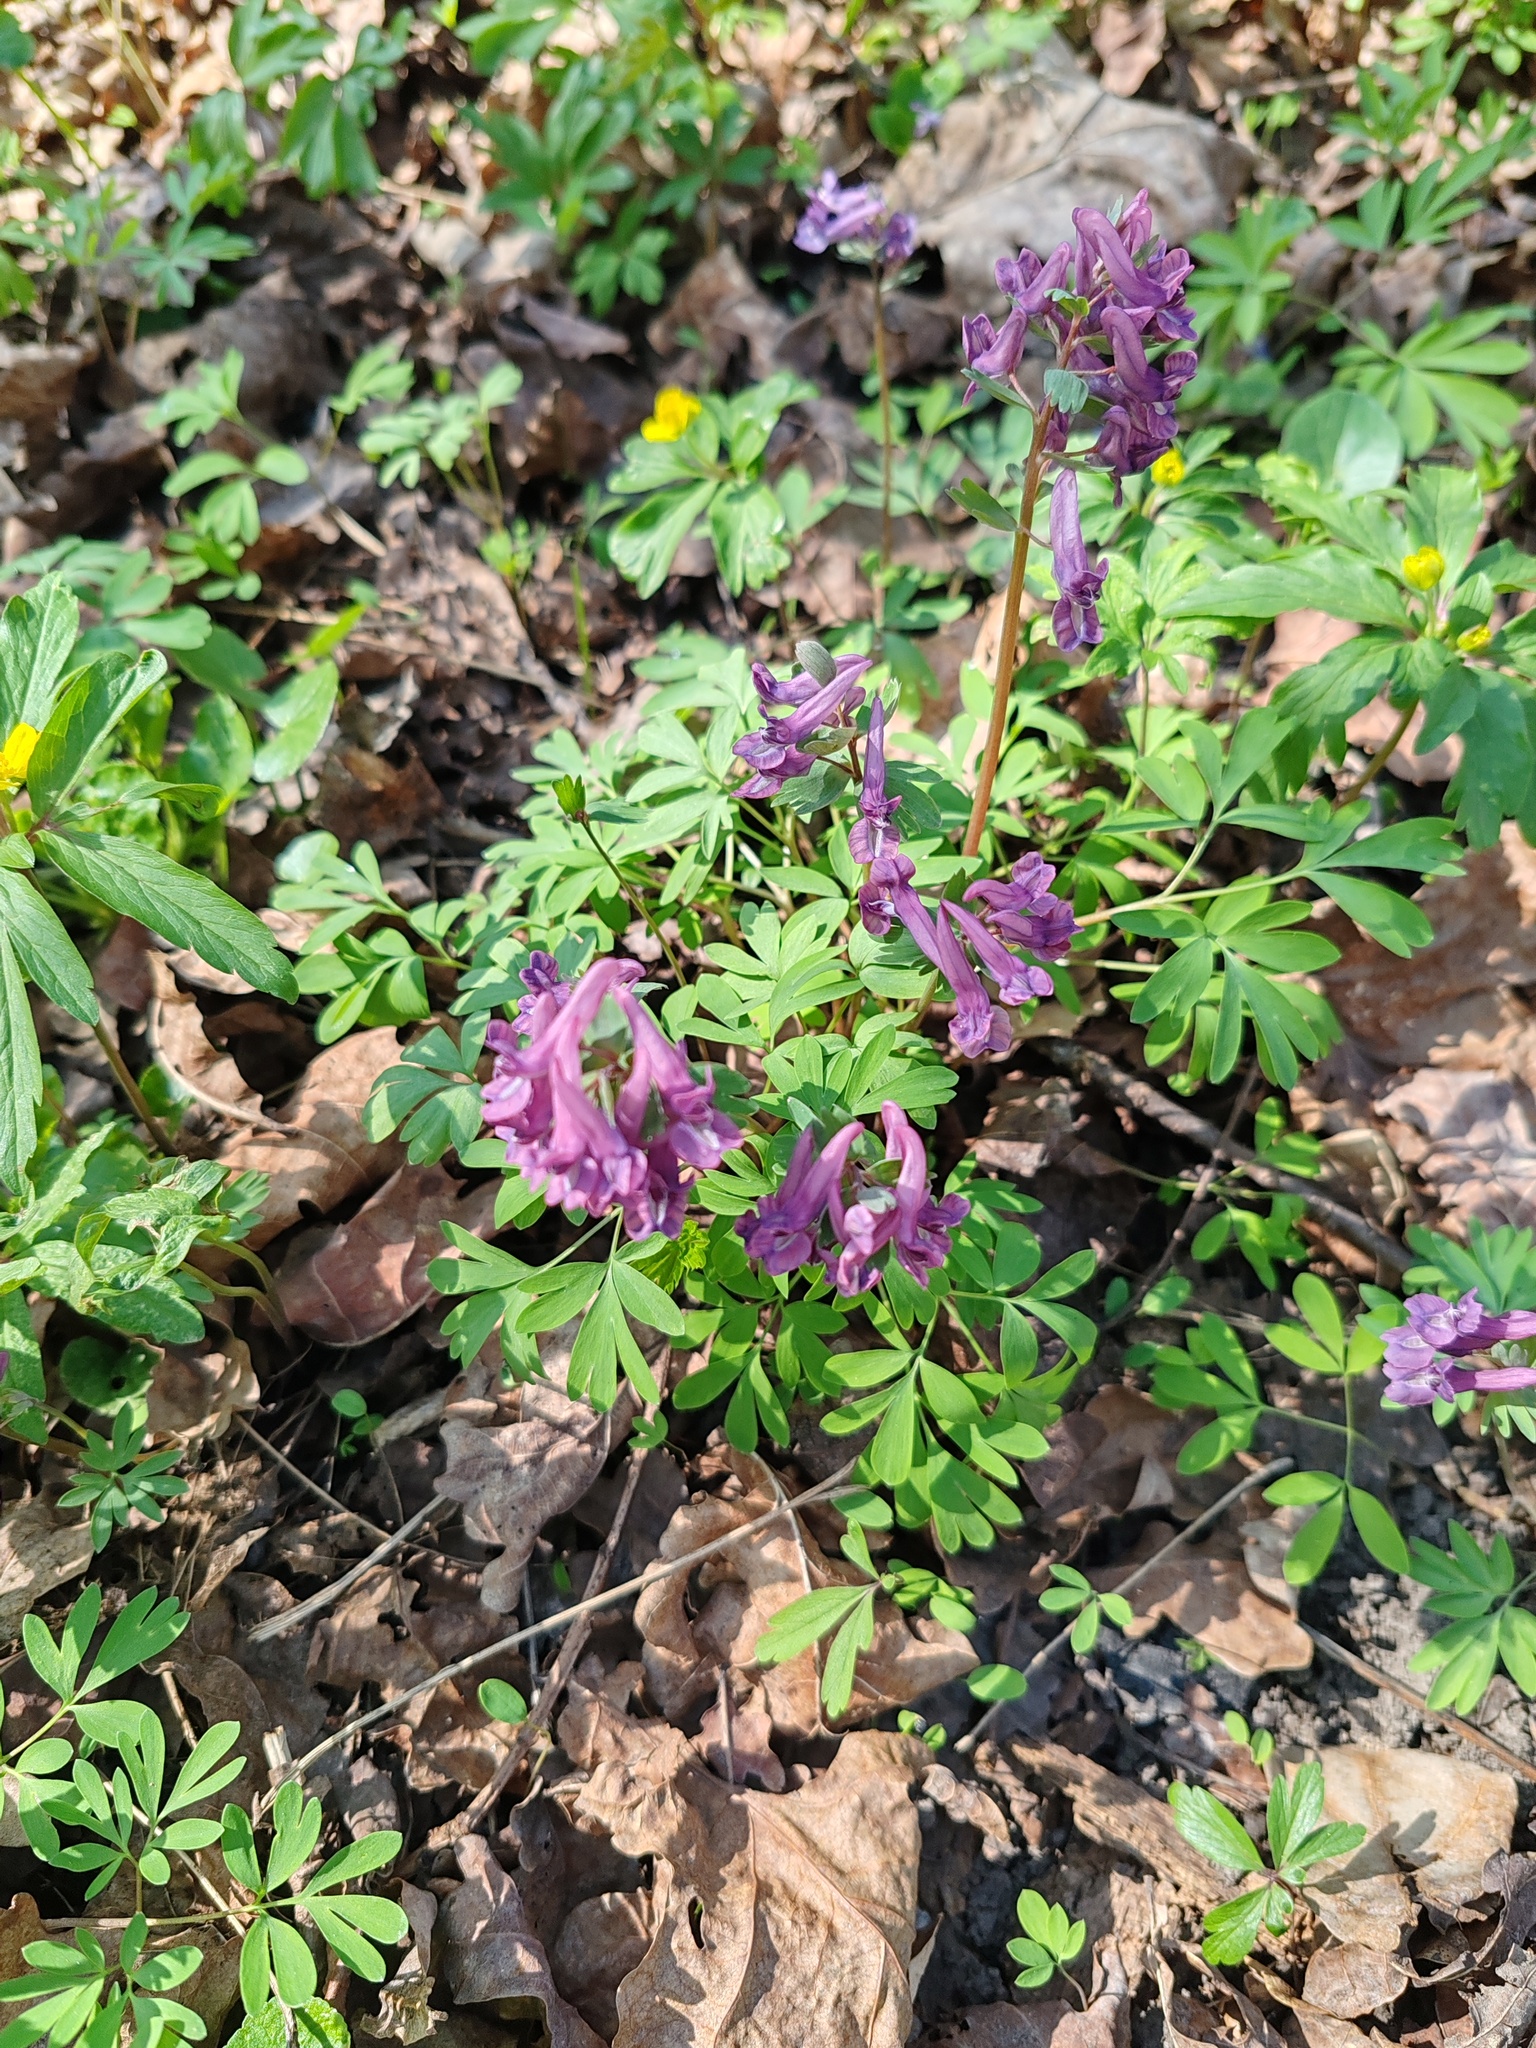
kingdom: Plantae
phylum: Tracheophyta
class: Magnoliopsida
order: Ranunculales
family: Papaveraceae
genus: Corydalis
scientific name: Corydalis solida
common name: Bird-in-a-bush
